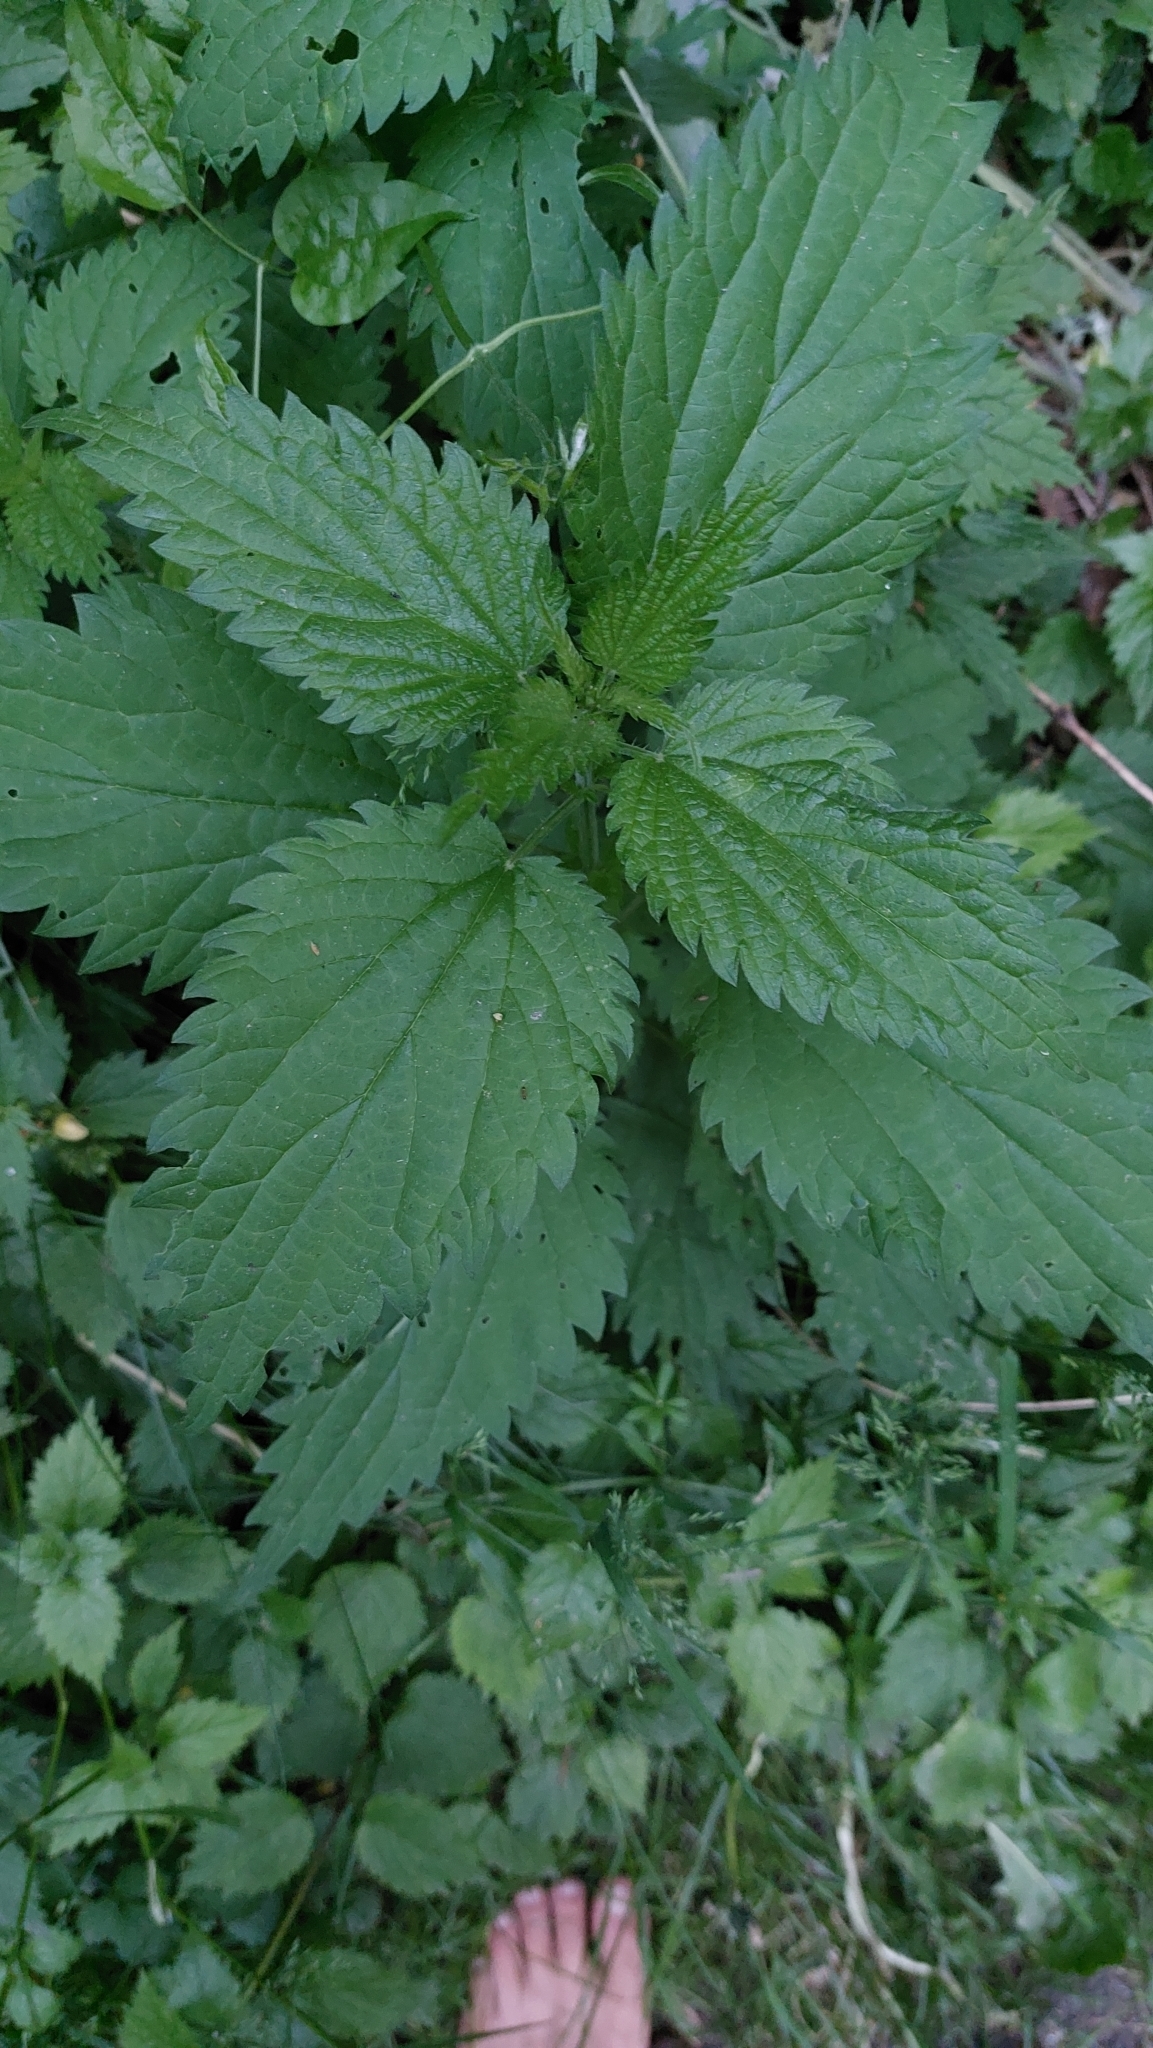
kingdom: Plantae
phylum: Tracheophyta
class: Magnoliopsida
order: Rosales
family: Urticaceae
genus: Urtica
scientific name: Urtica dioica
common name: Common nettle
